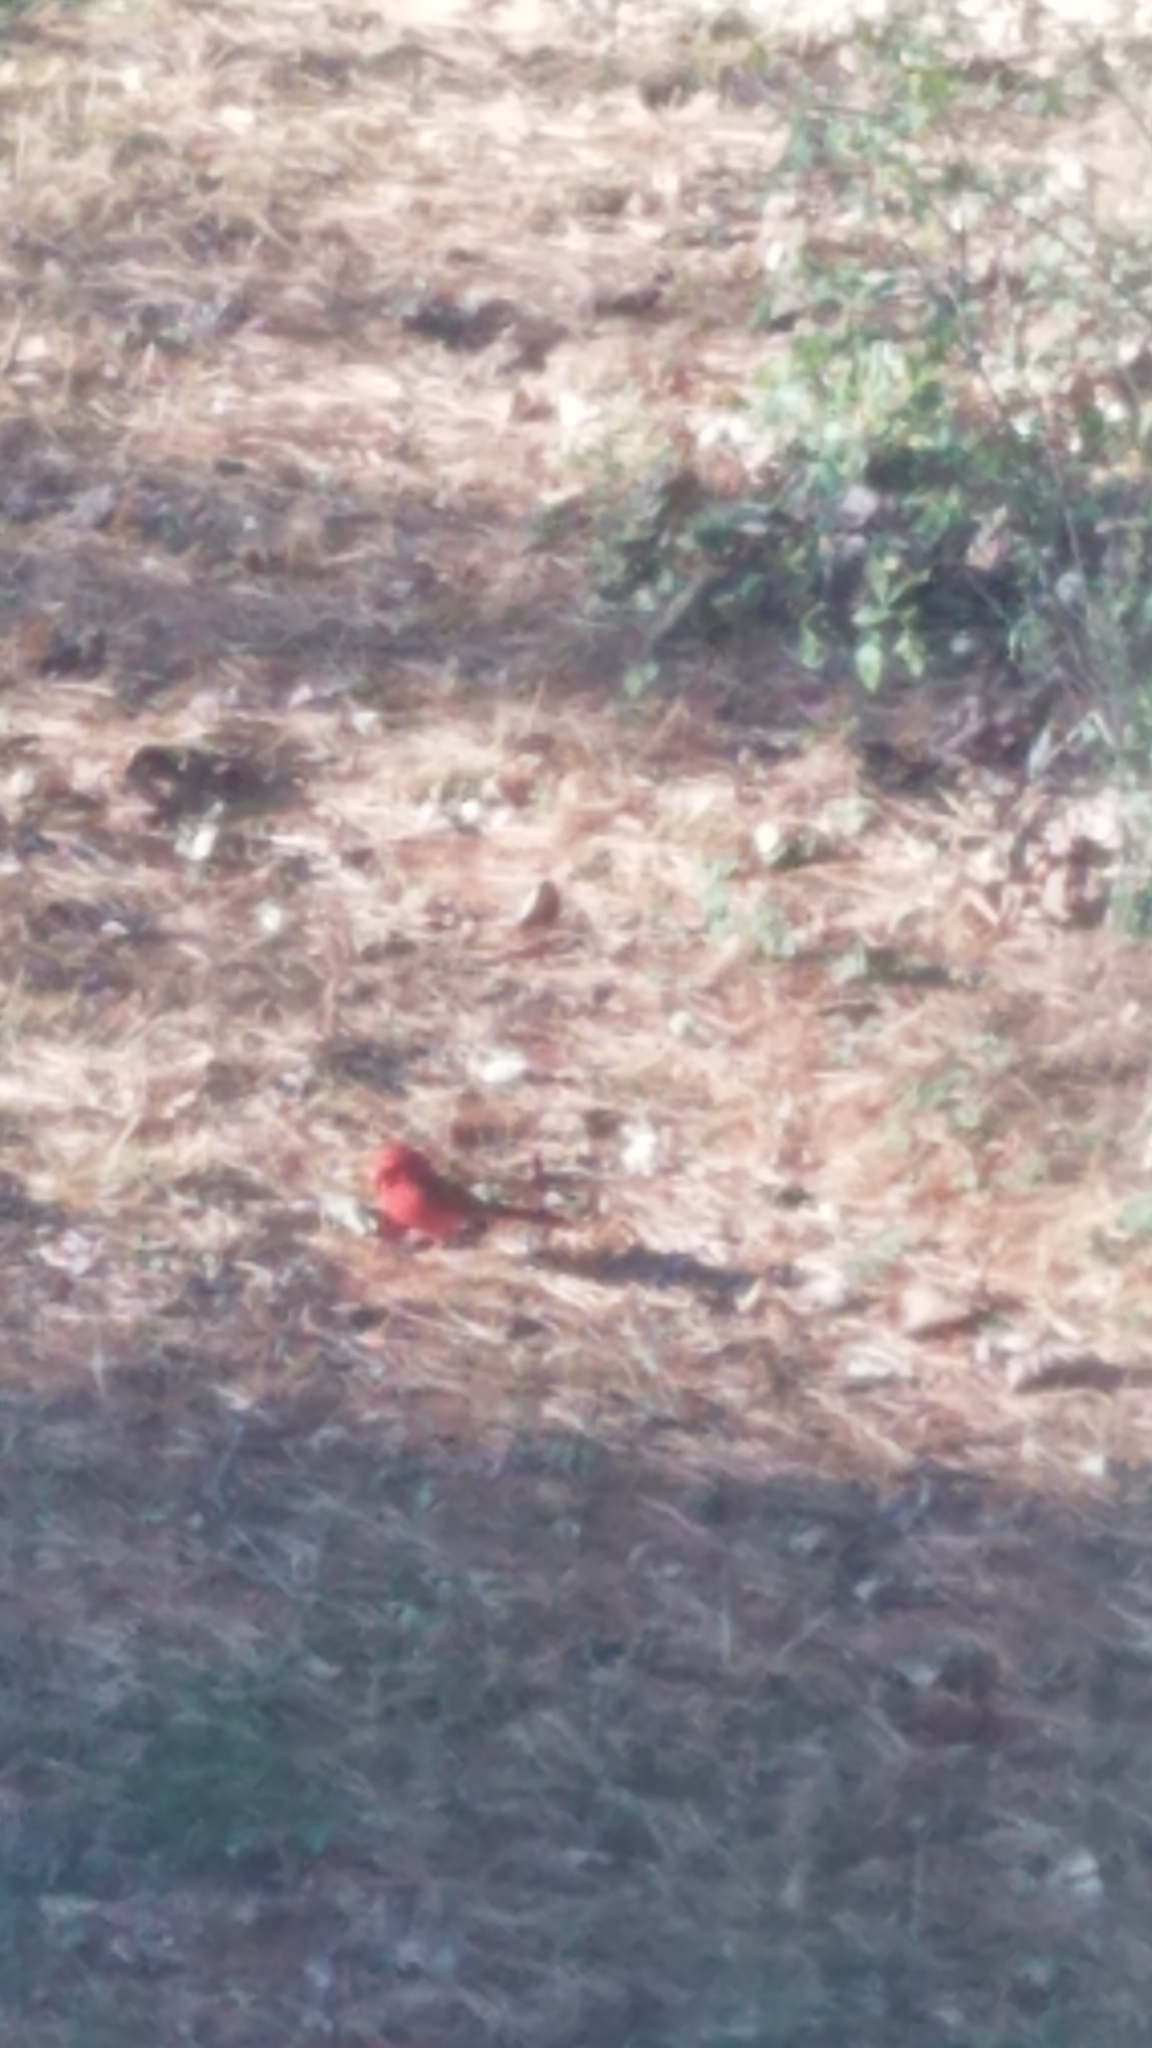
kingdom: Animalia
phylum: Chordata
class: Aves
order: Passeriformes
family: Cardinalidae
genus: Cardinalis
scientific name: Cardinalis cardinalis
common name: Northern cardinal
